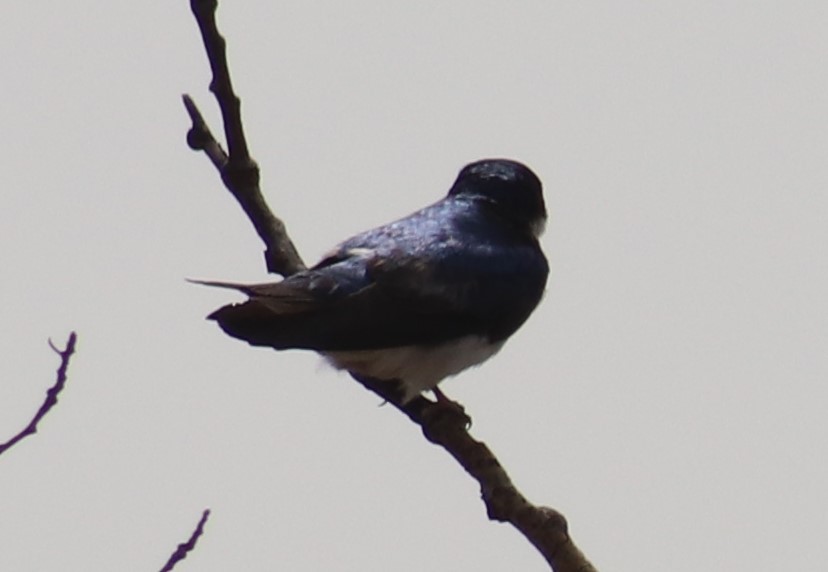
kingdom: Animalia
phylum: Chordata
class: Aves
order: Passeriformes
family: Hirundinidae
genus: Tachycineta
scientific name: Tachycineta bicolor
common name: Tree swallow
